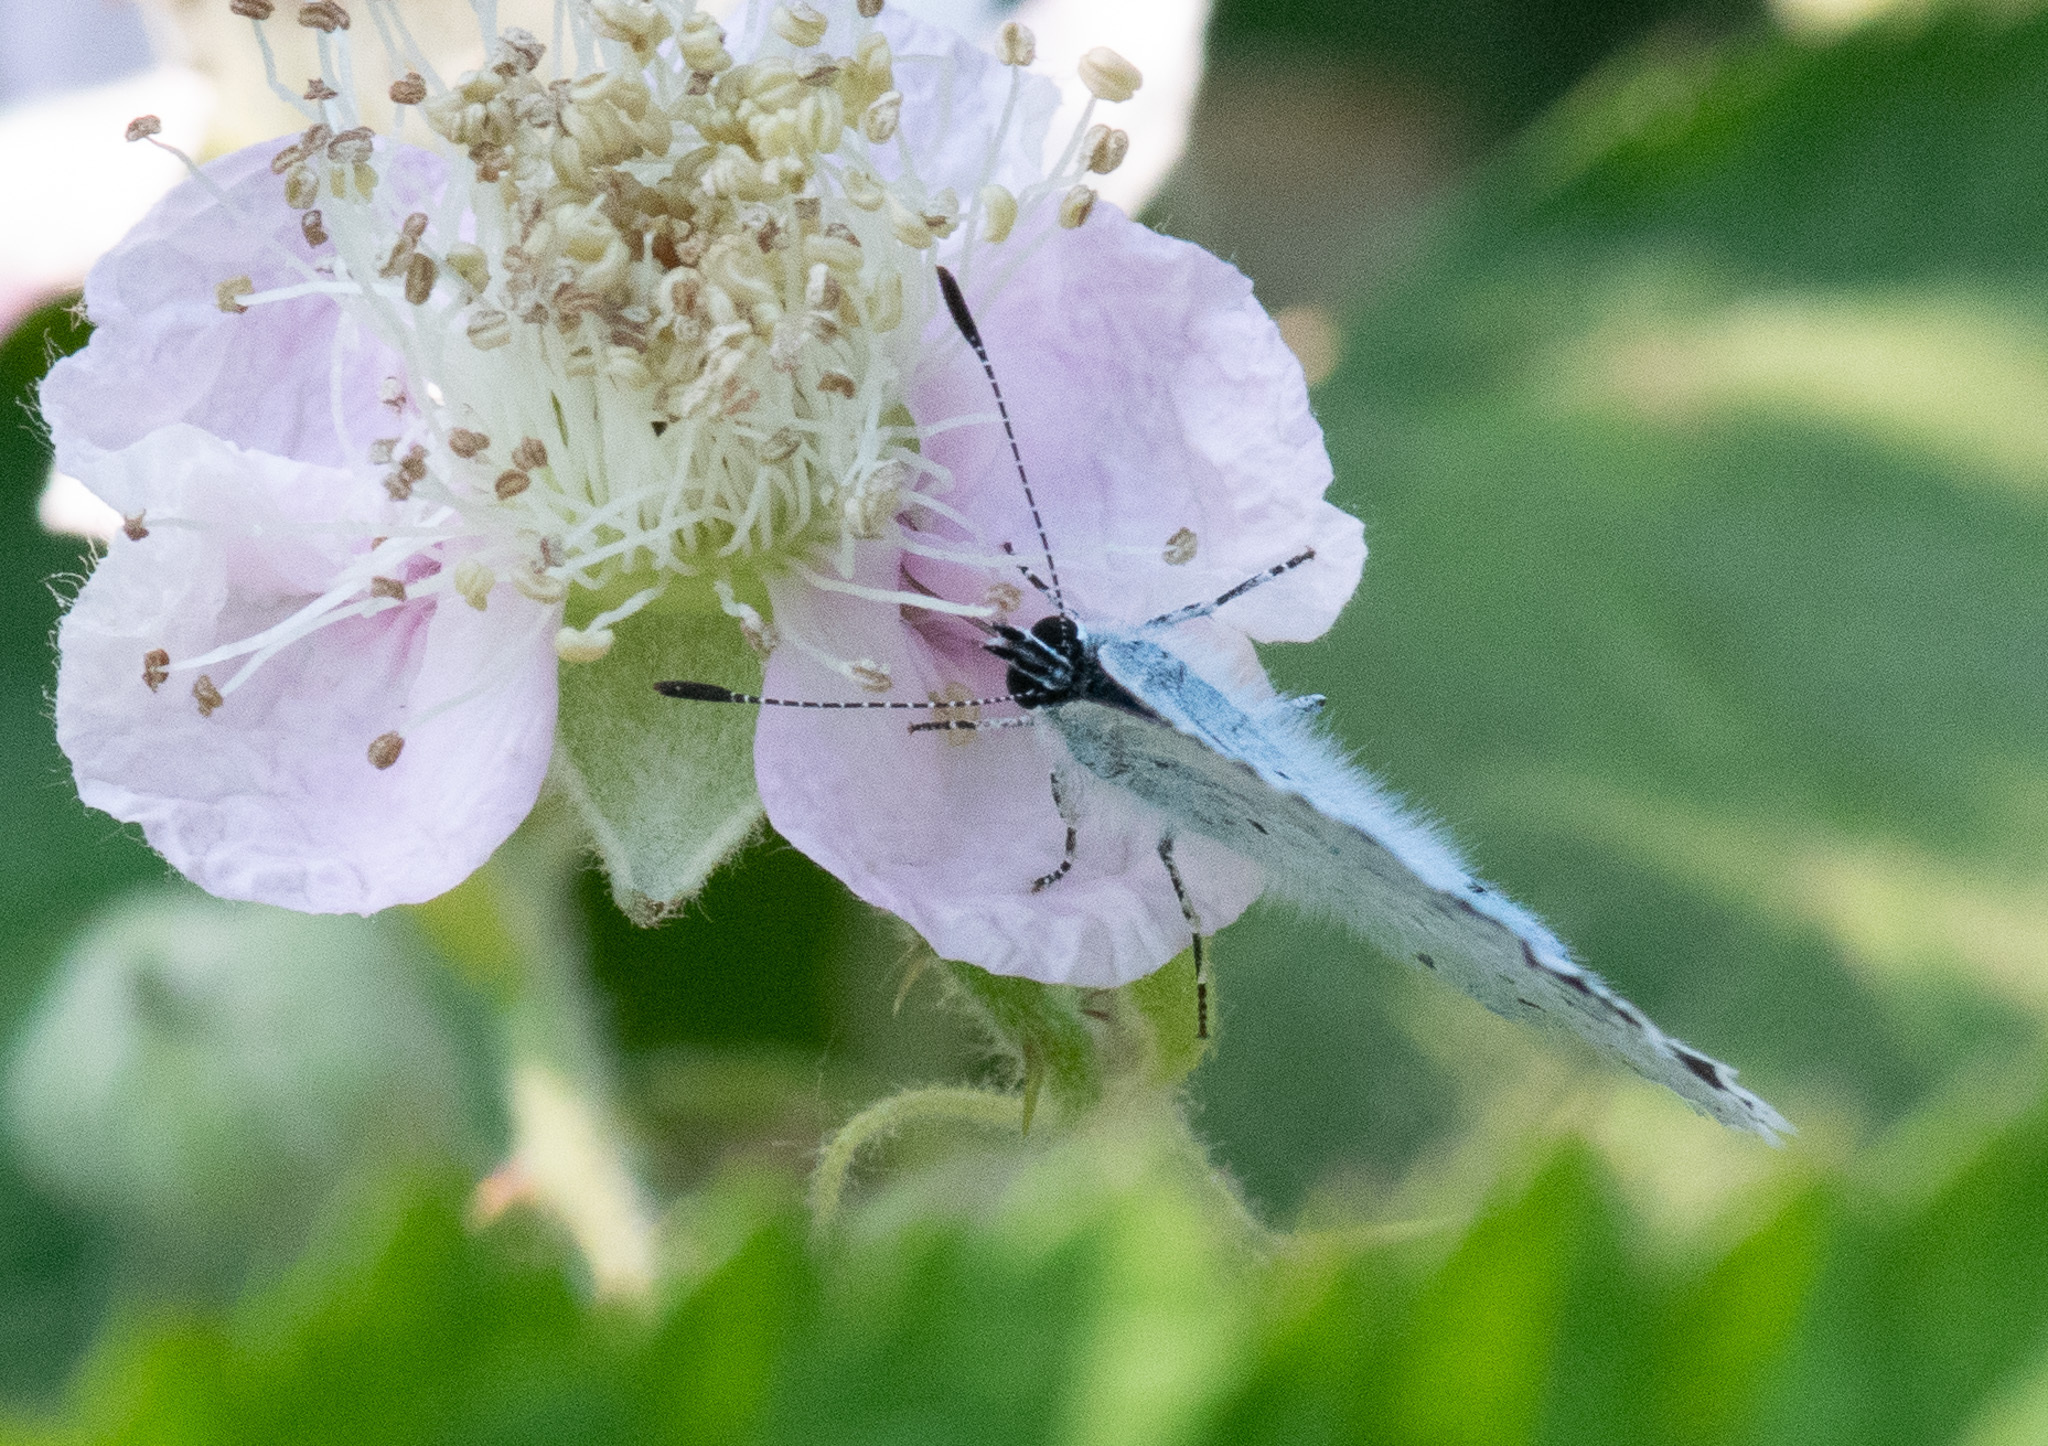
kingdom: Animalia
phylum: Arthropoda
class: Insecta
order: Lepidoptera
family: Lycaenidae
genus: Celastrina
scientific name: Celastrina argiolus
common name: Holly blue
